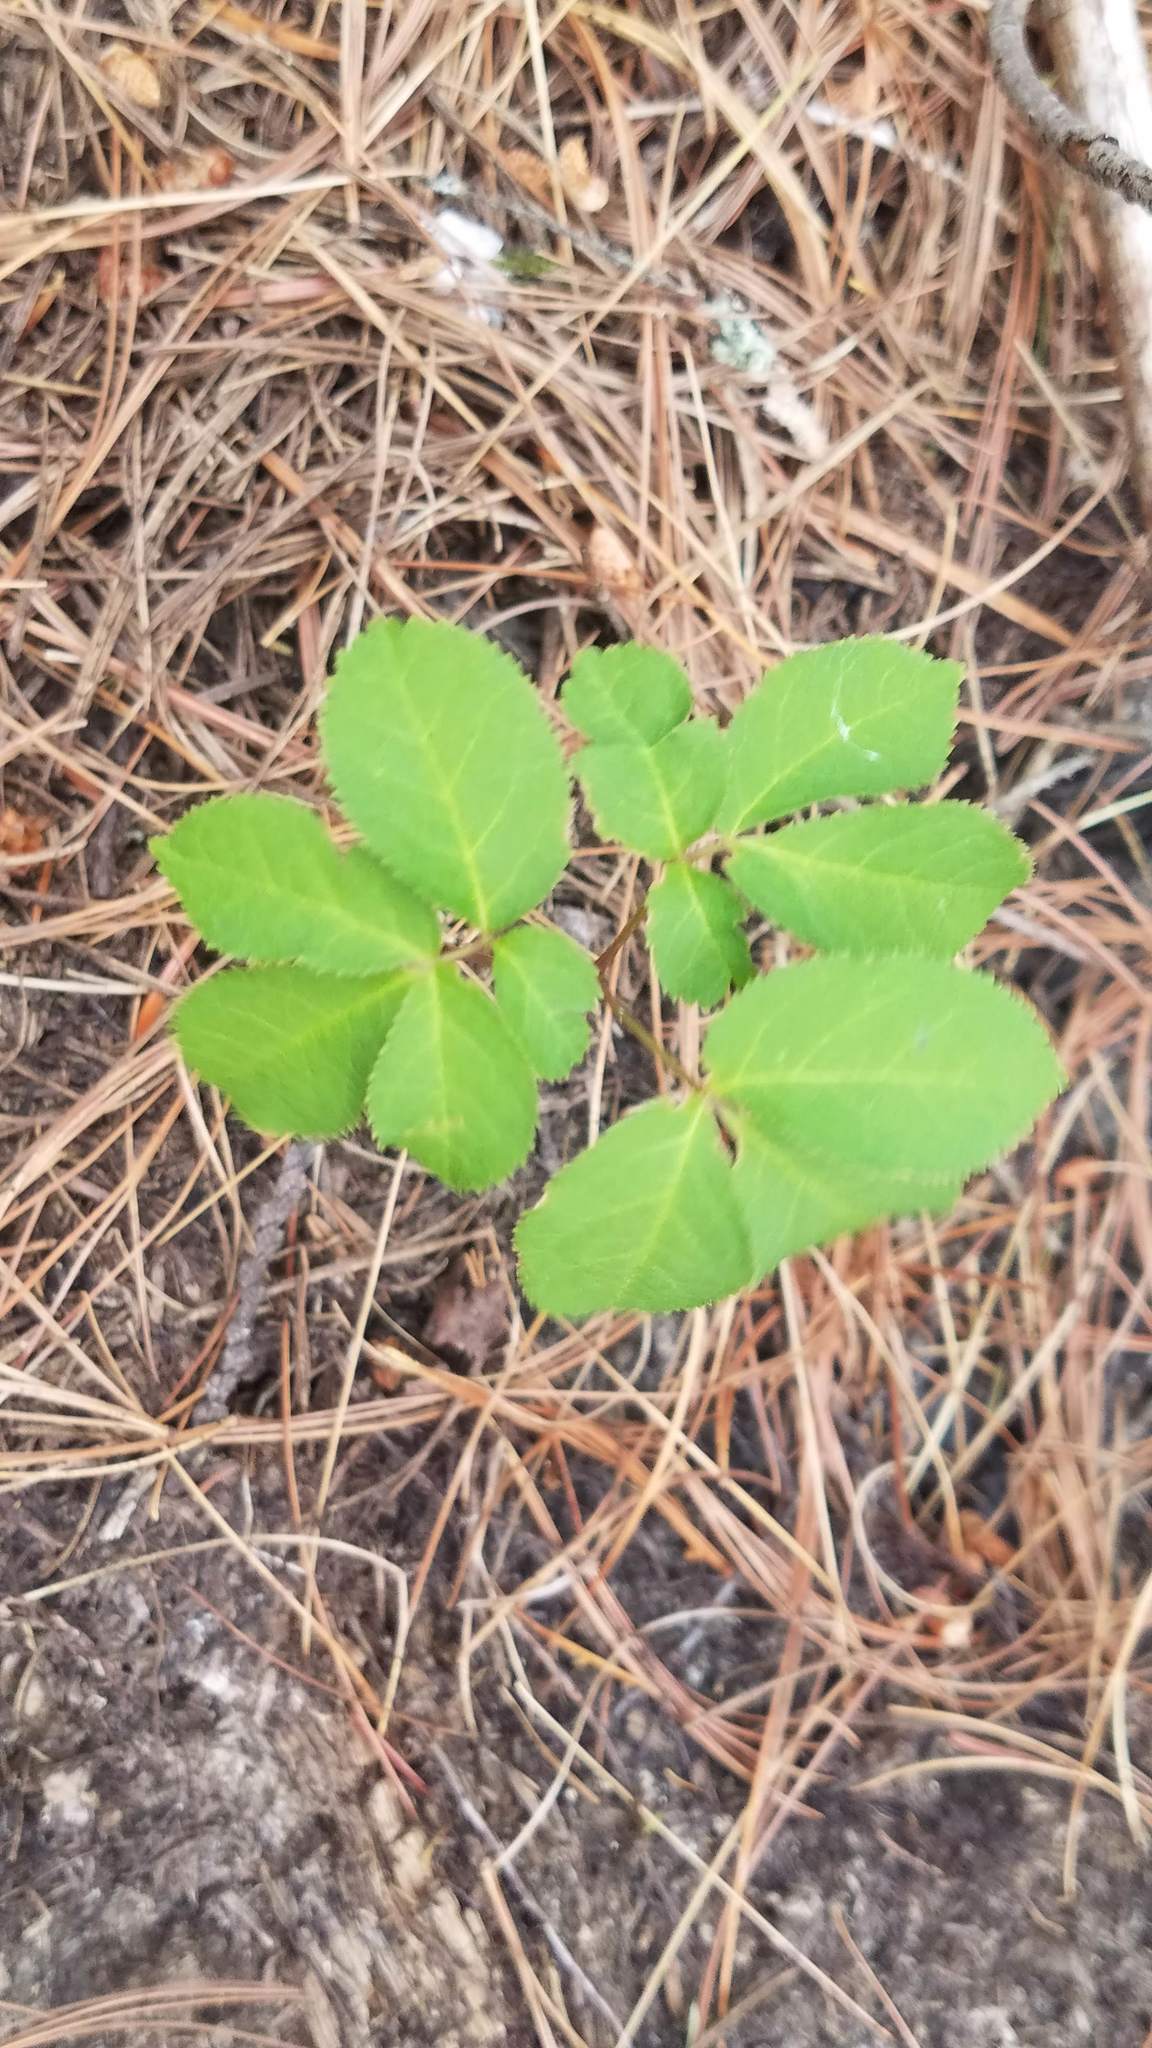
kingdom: Plantae
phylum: Tracheophyta
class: Magnoliopsida
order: Apiales
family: Araliaceae
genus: Aralia
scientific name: Aralia nudicaulis
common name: Wild sarsaparilla
